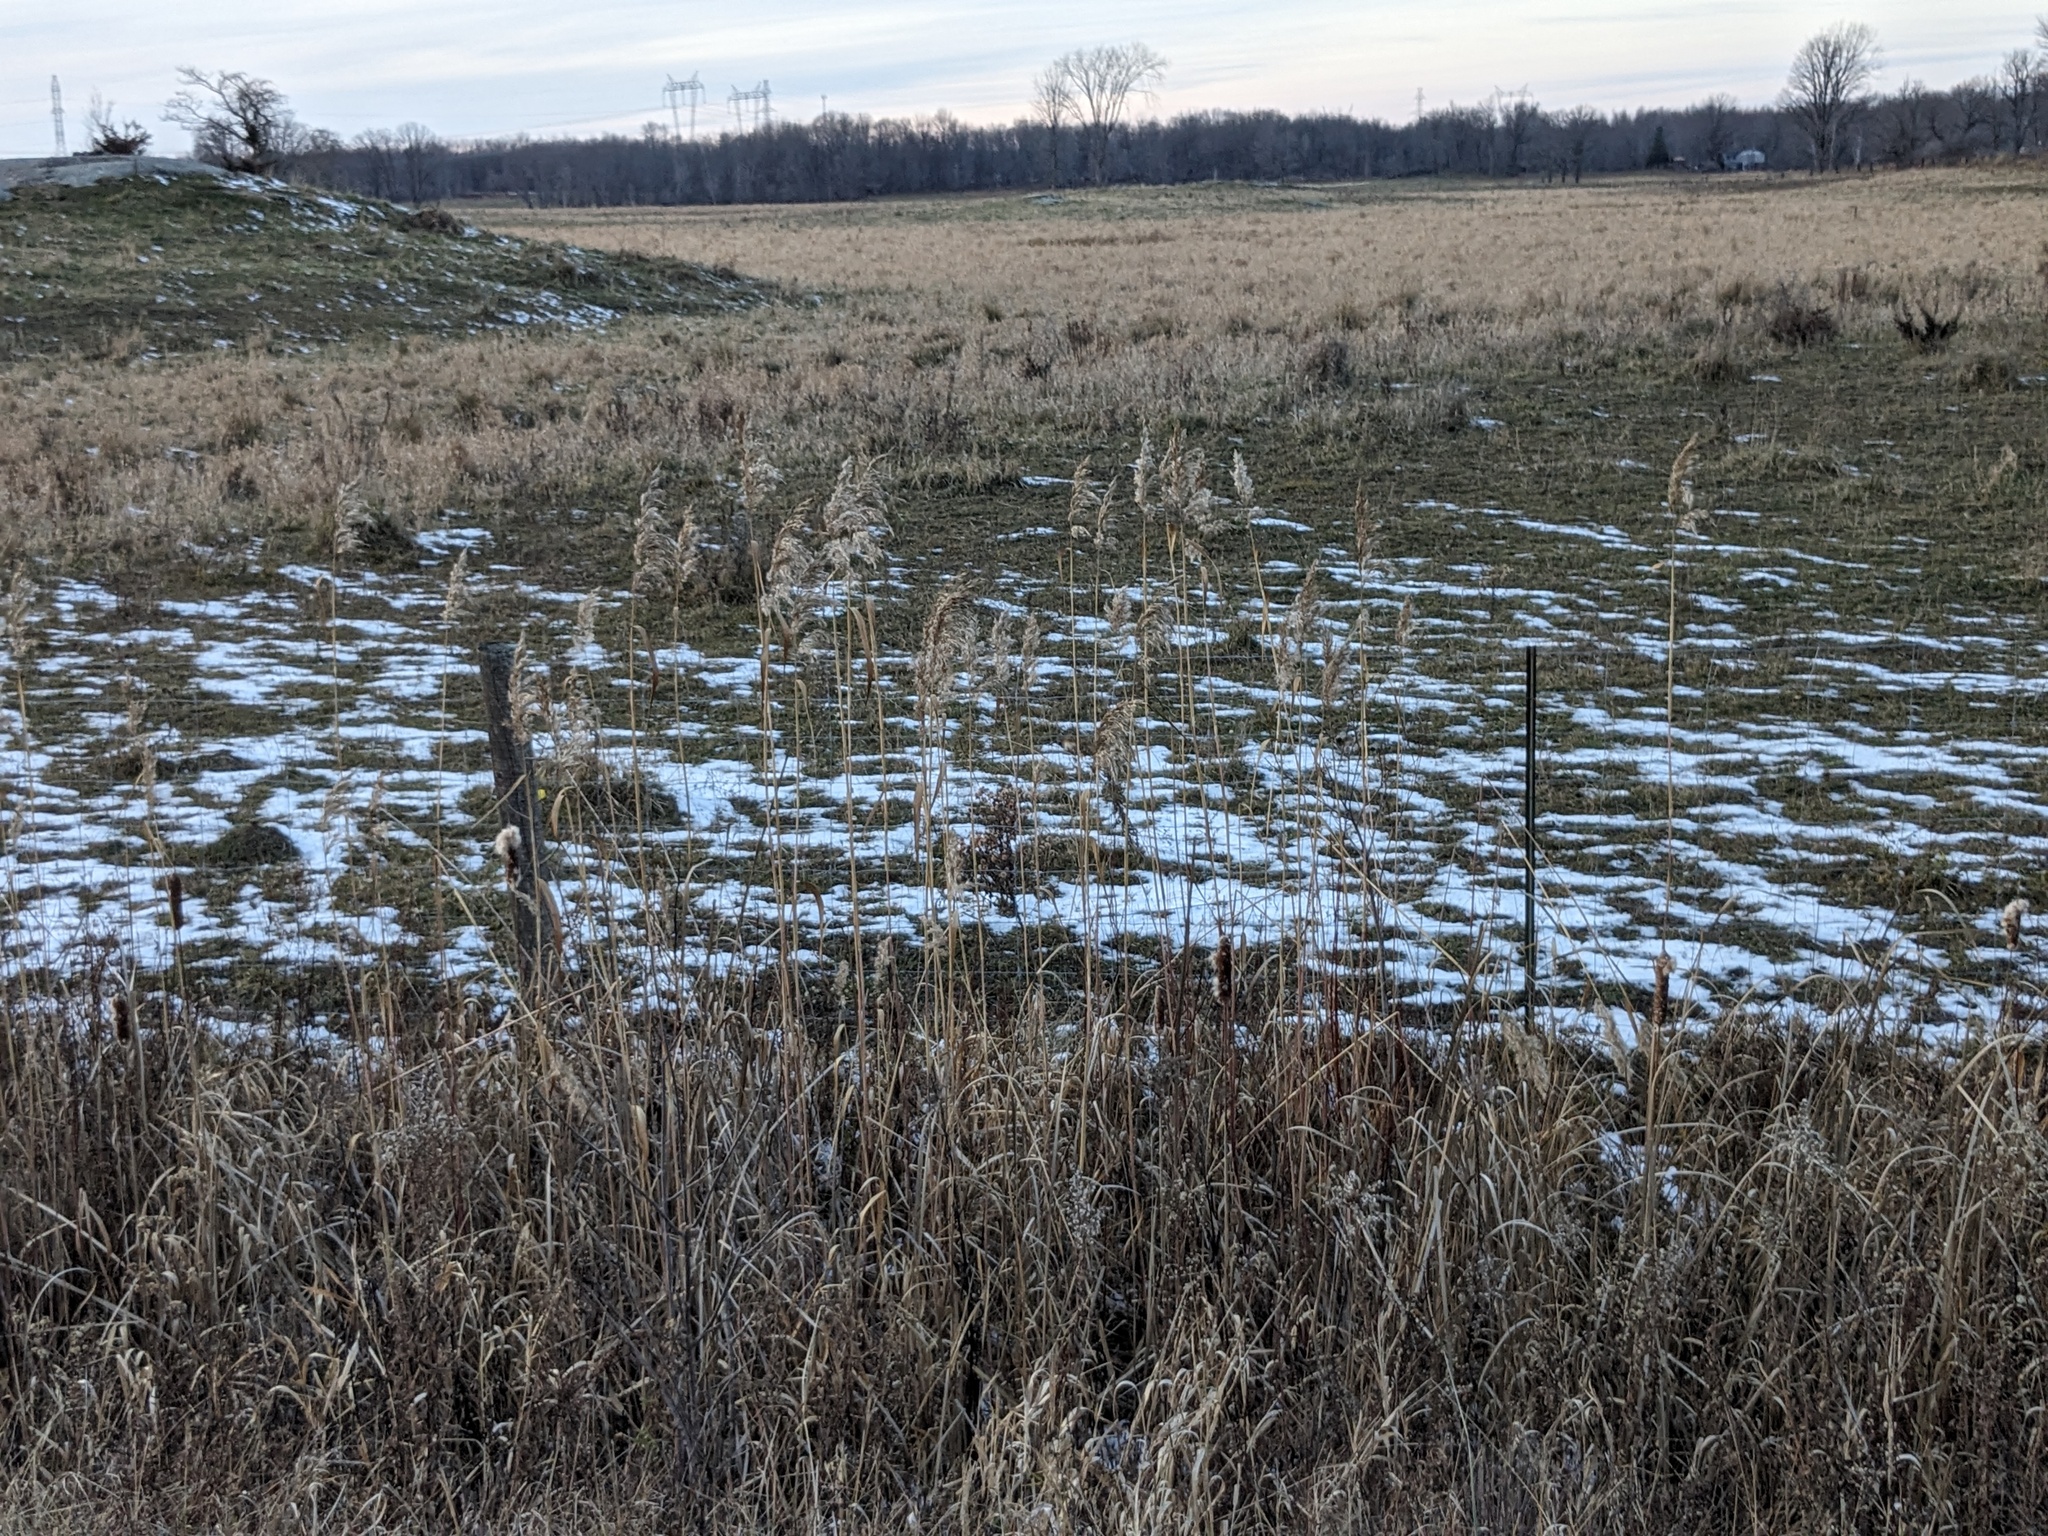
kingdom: Plantae
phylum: Tracheophyta
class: Liliopsida
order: Poales
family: Poaceae
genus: Phragmites
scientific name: Phragmites australis
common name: Common reed
